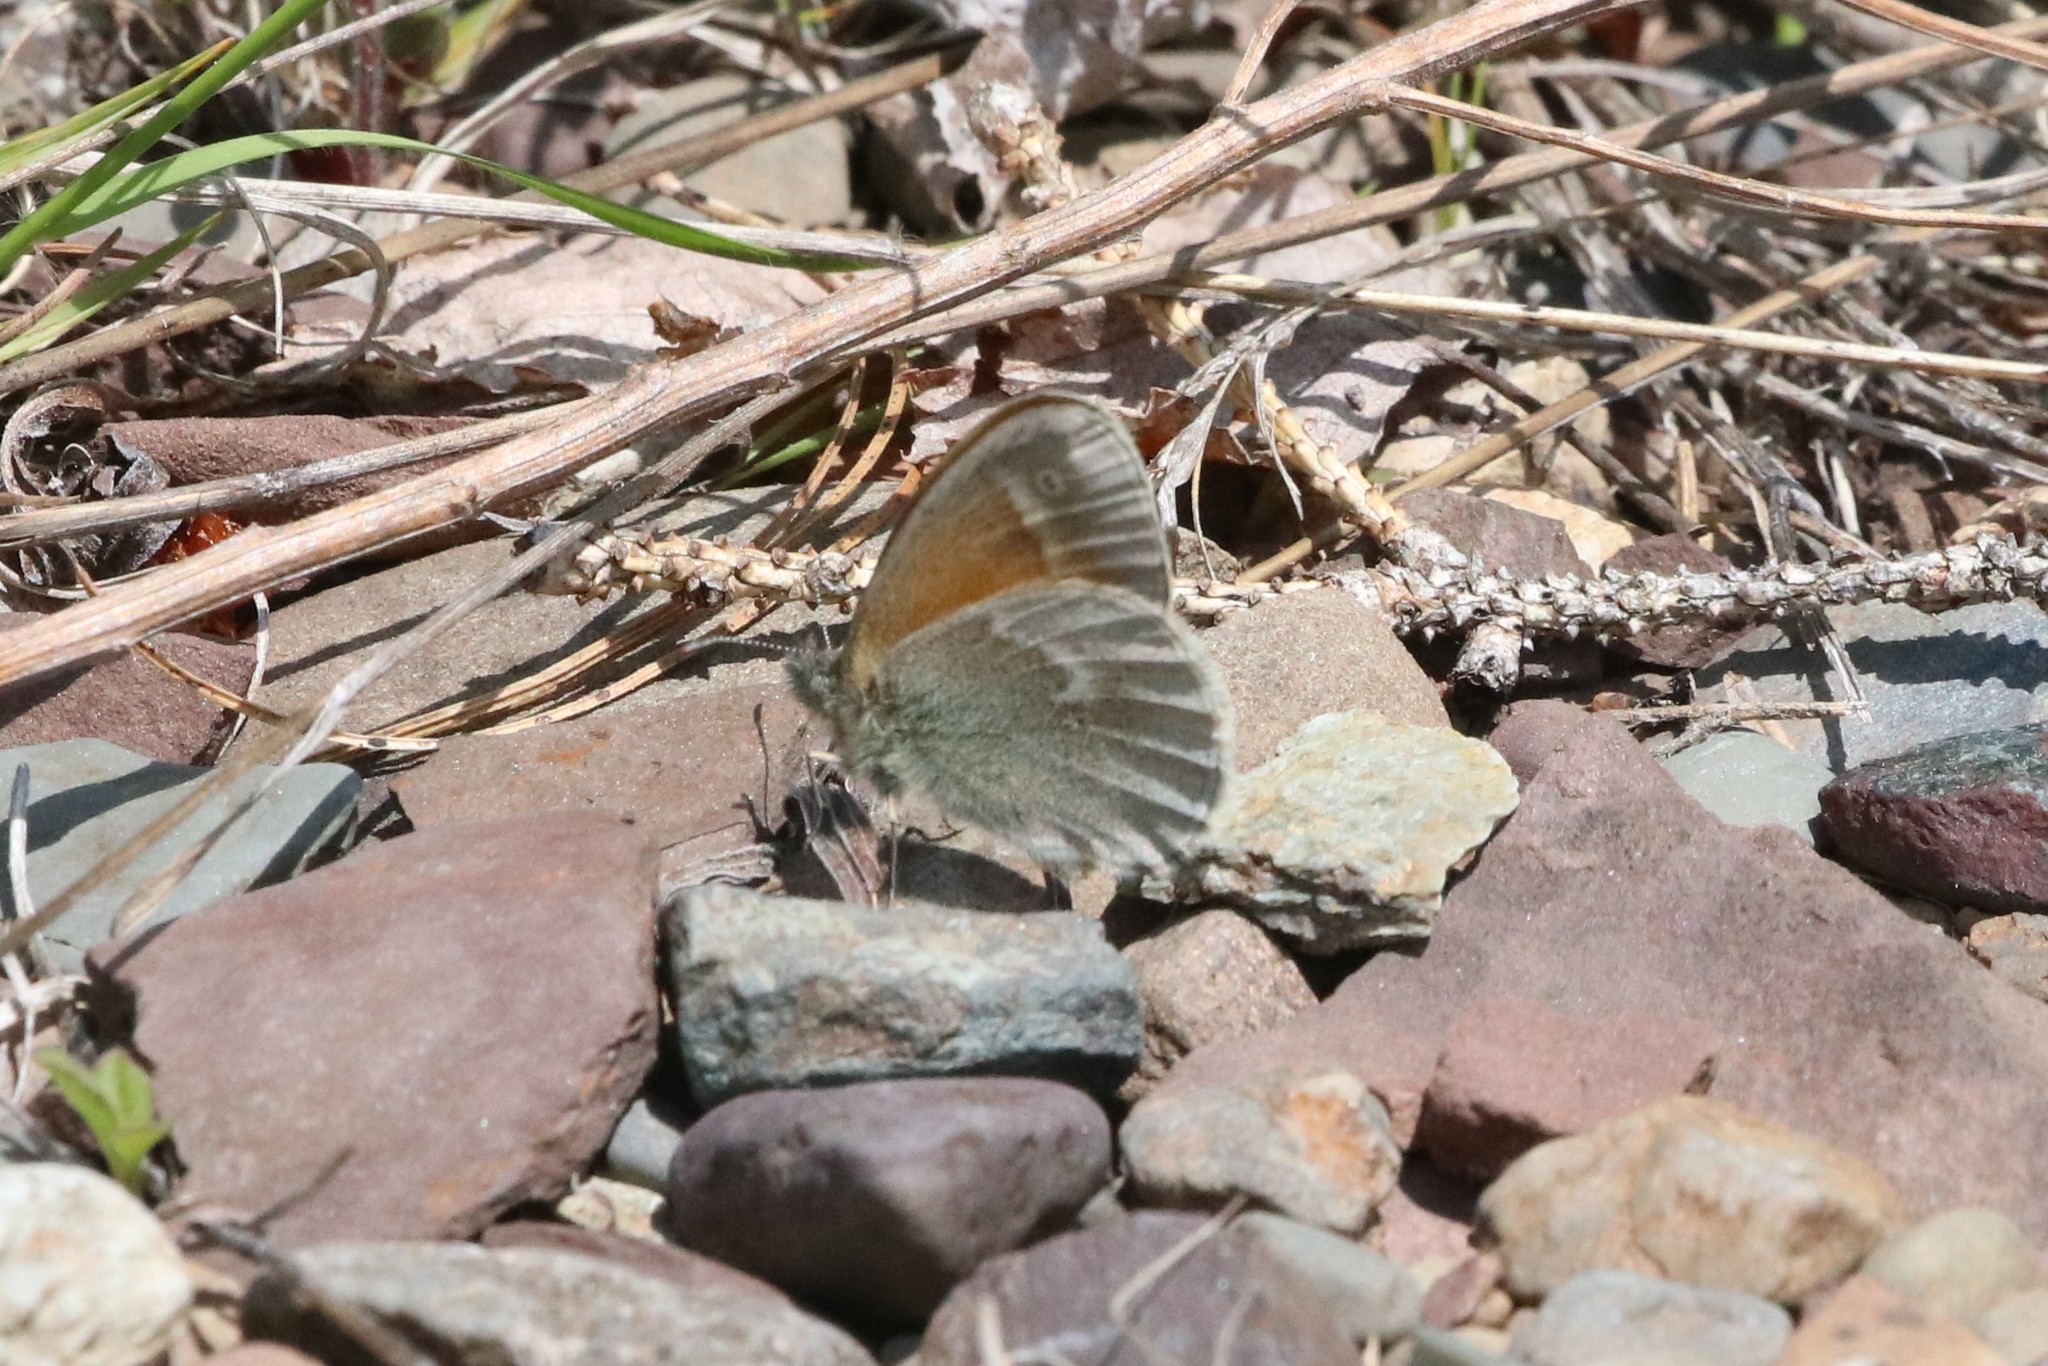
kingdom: Animalia
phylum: Arthropoda
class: Insecta
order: Lepidoptera
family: Nymphalidae
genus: Coenonympha
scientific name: Coenonympha california
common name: Common ringlet
